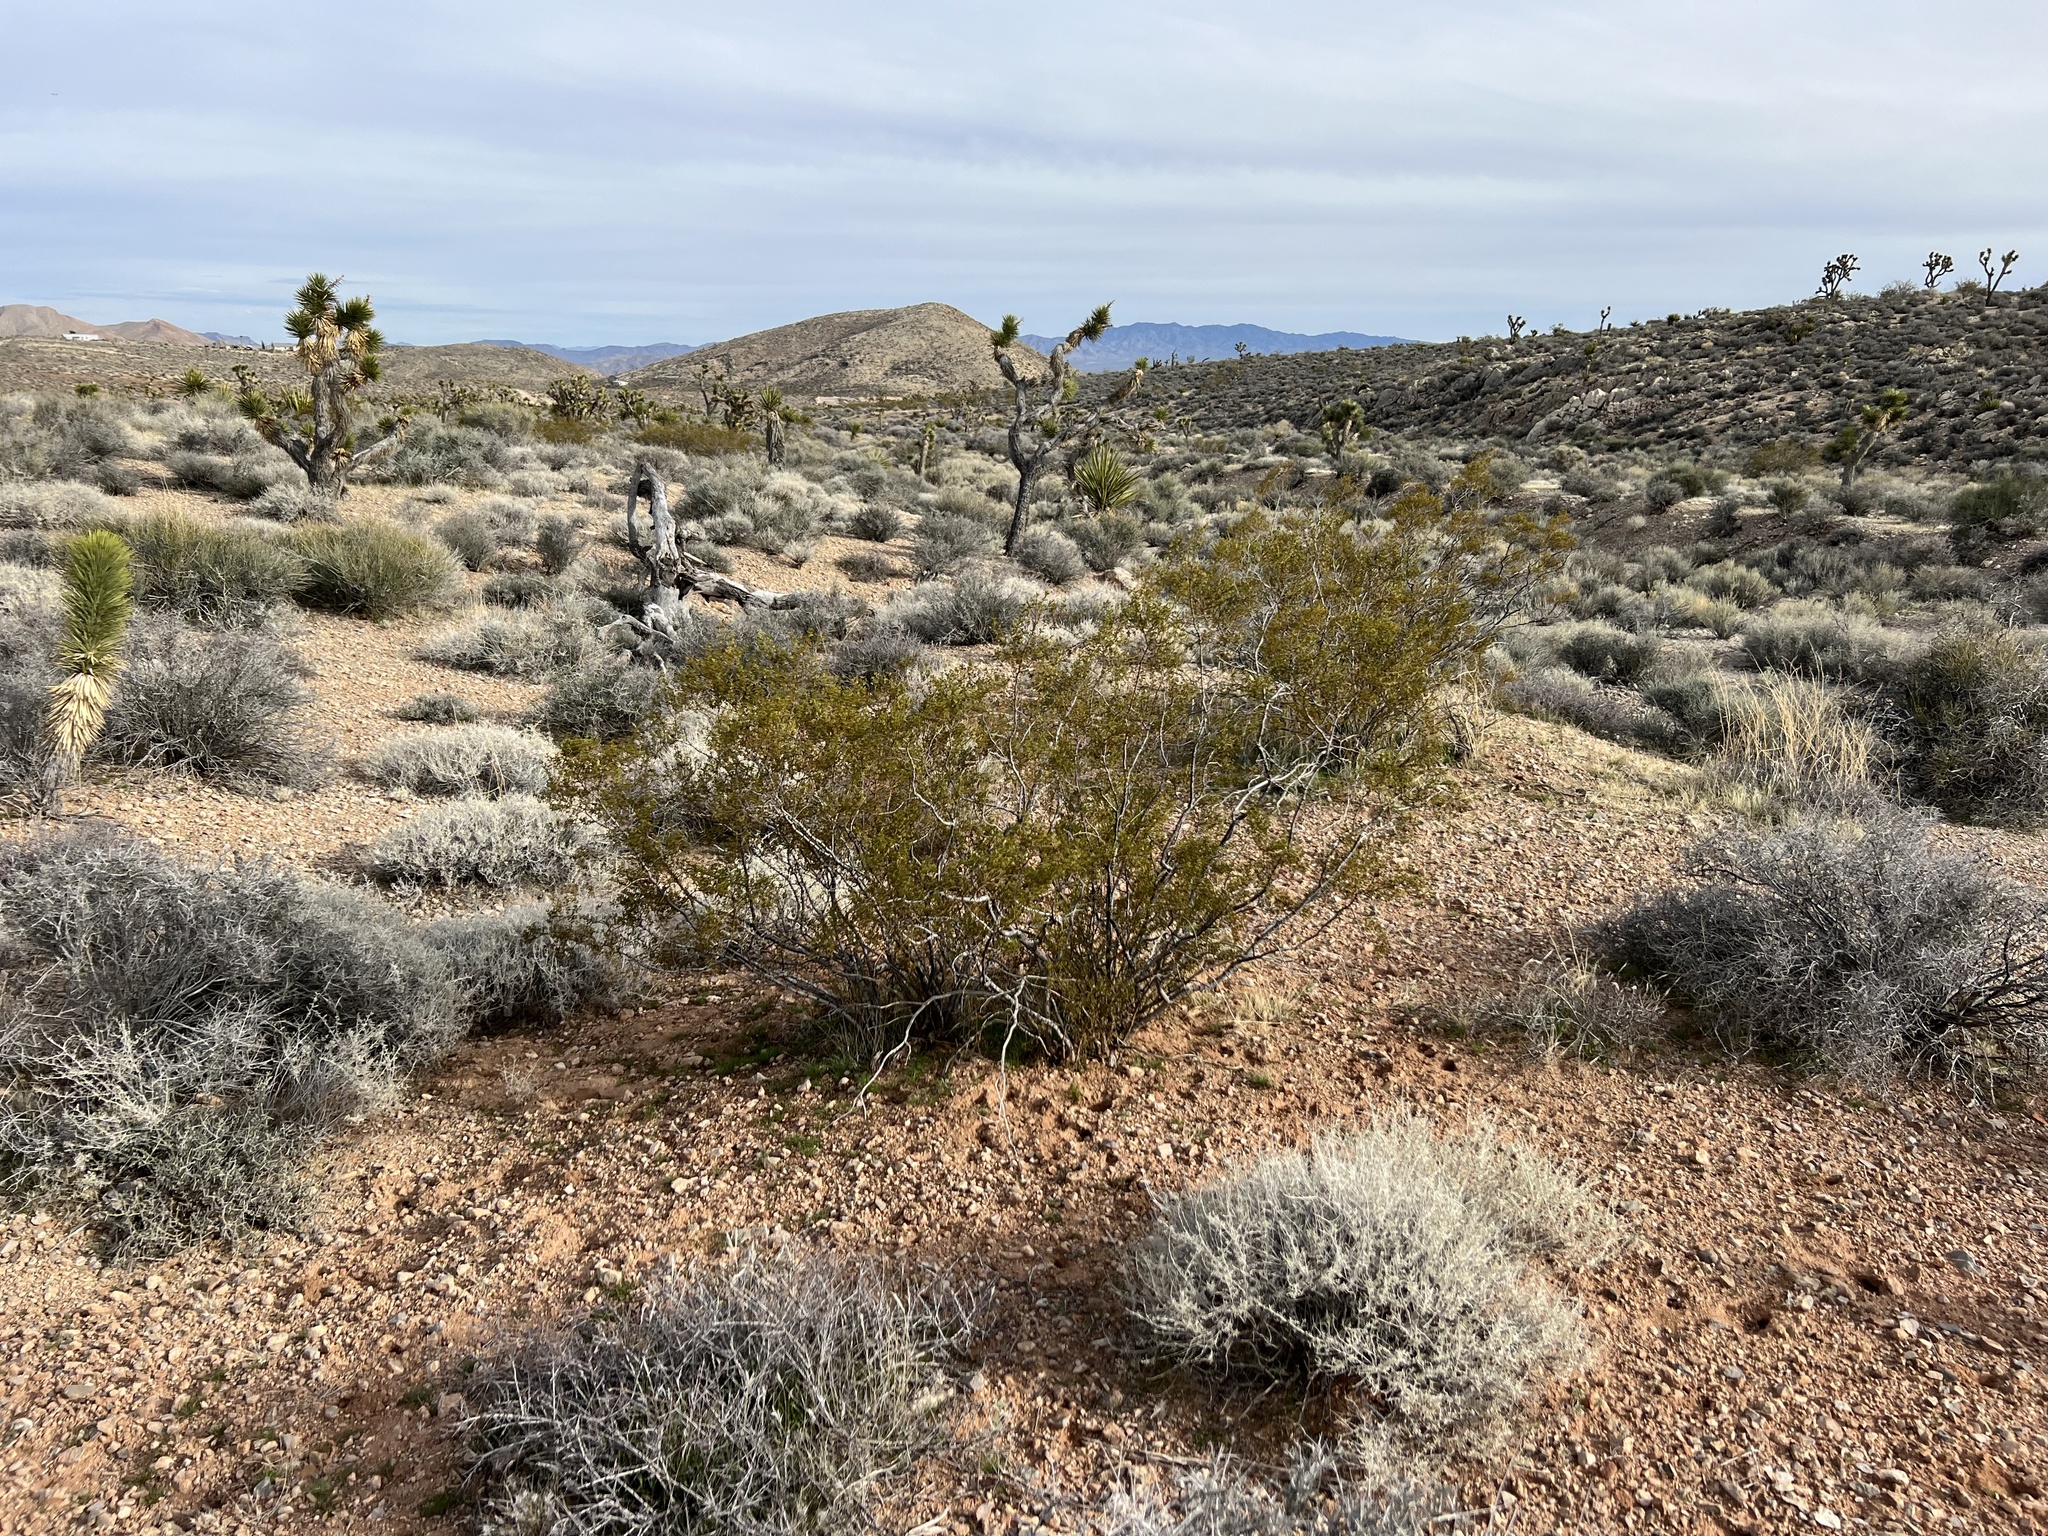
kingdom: Plantae
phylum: Tracheophyta
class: Magnoliopsida
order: Zygophyllales
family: Zygophyllaceae
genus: Larrea
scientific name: Larrea tridentata
